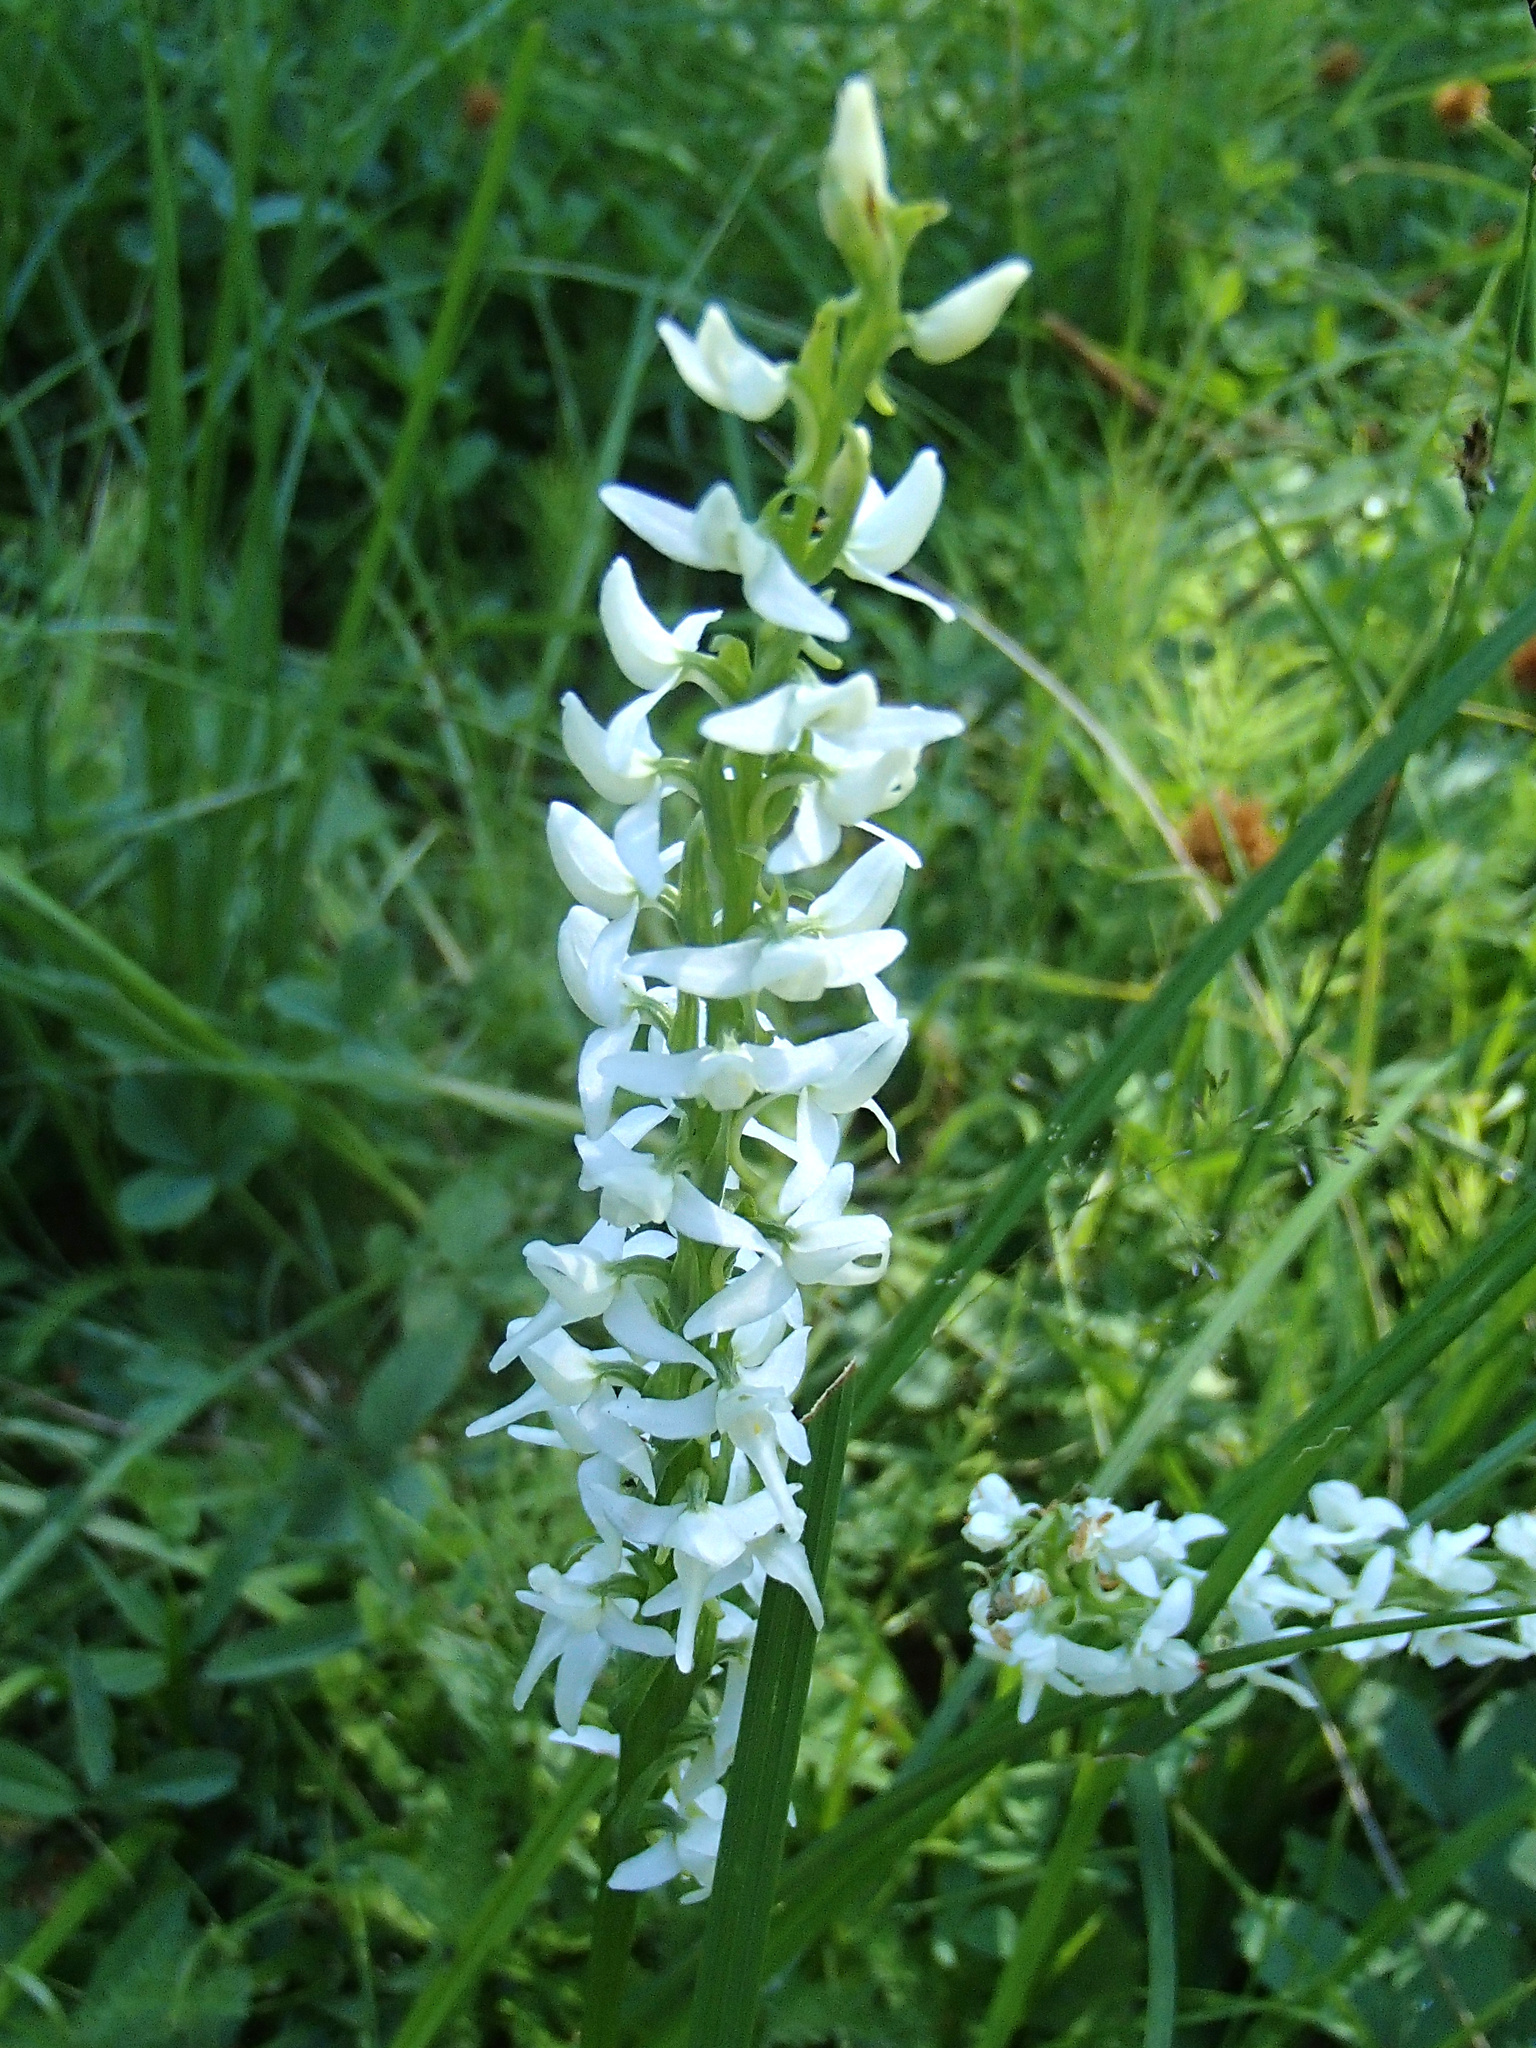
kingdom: Plantae
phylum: Tracheophyta
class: Liliopsida
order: Asparagales
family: Orchidaceae
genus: Platanthera
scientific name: Platanthera dilatata
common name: Bog candles
